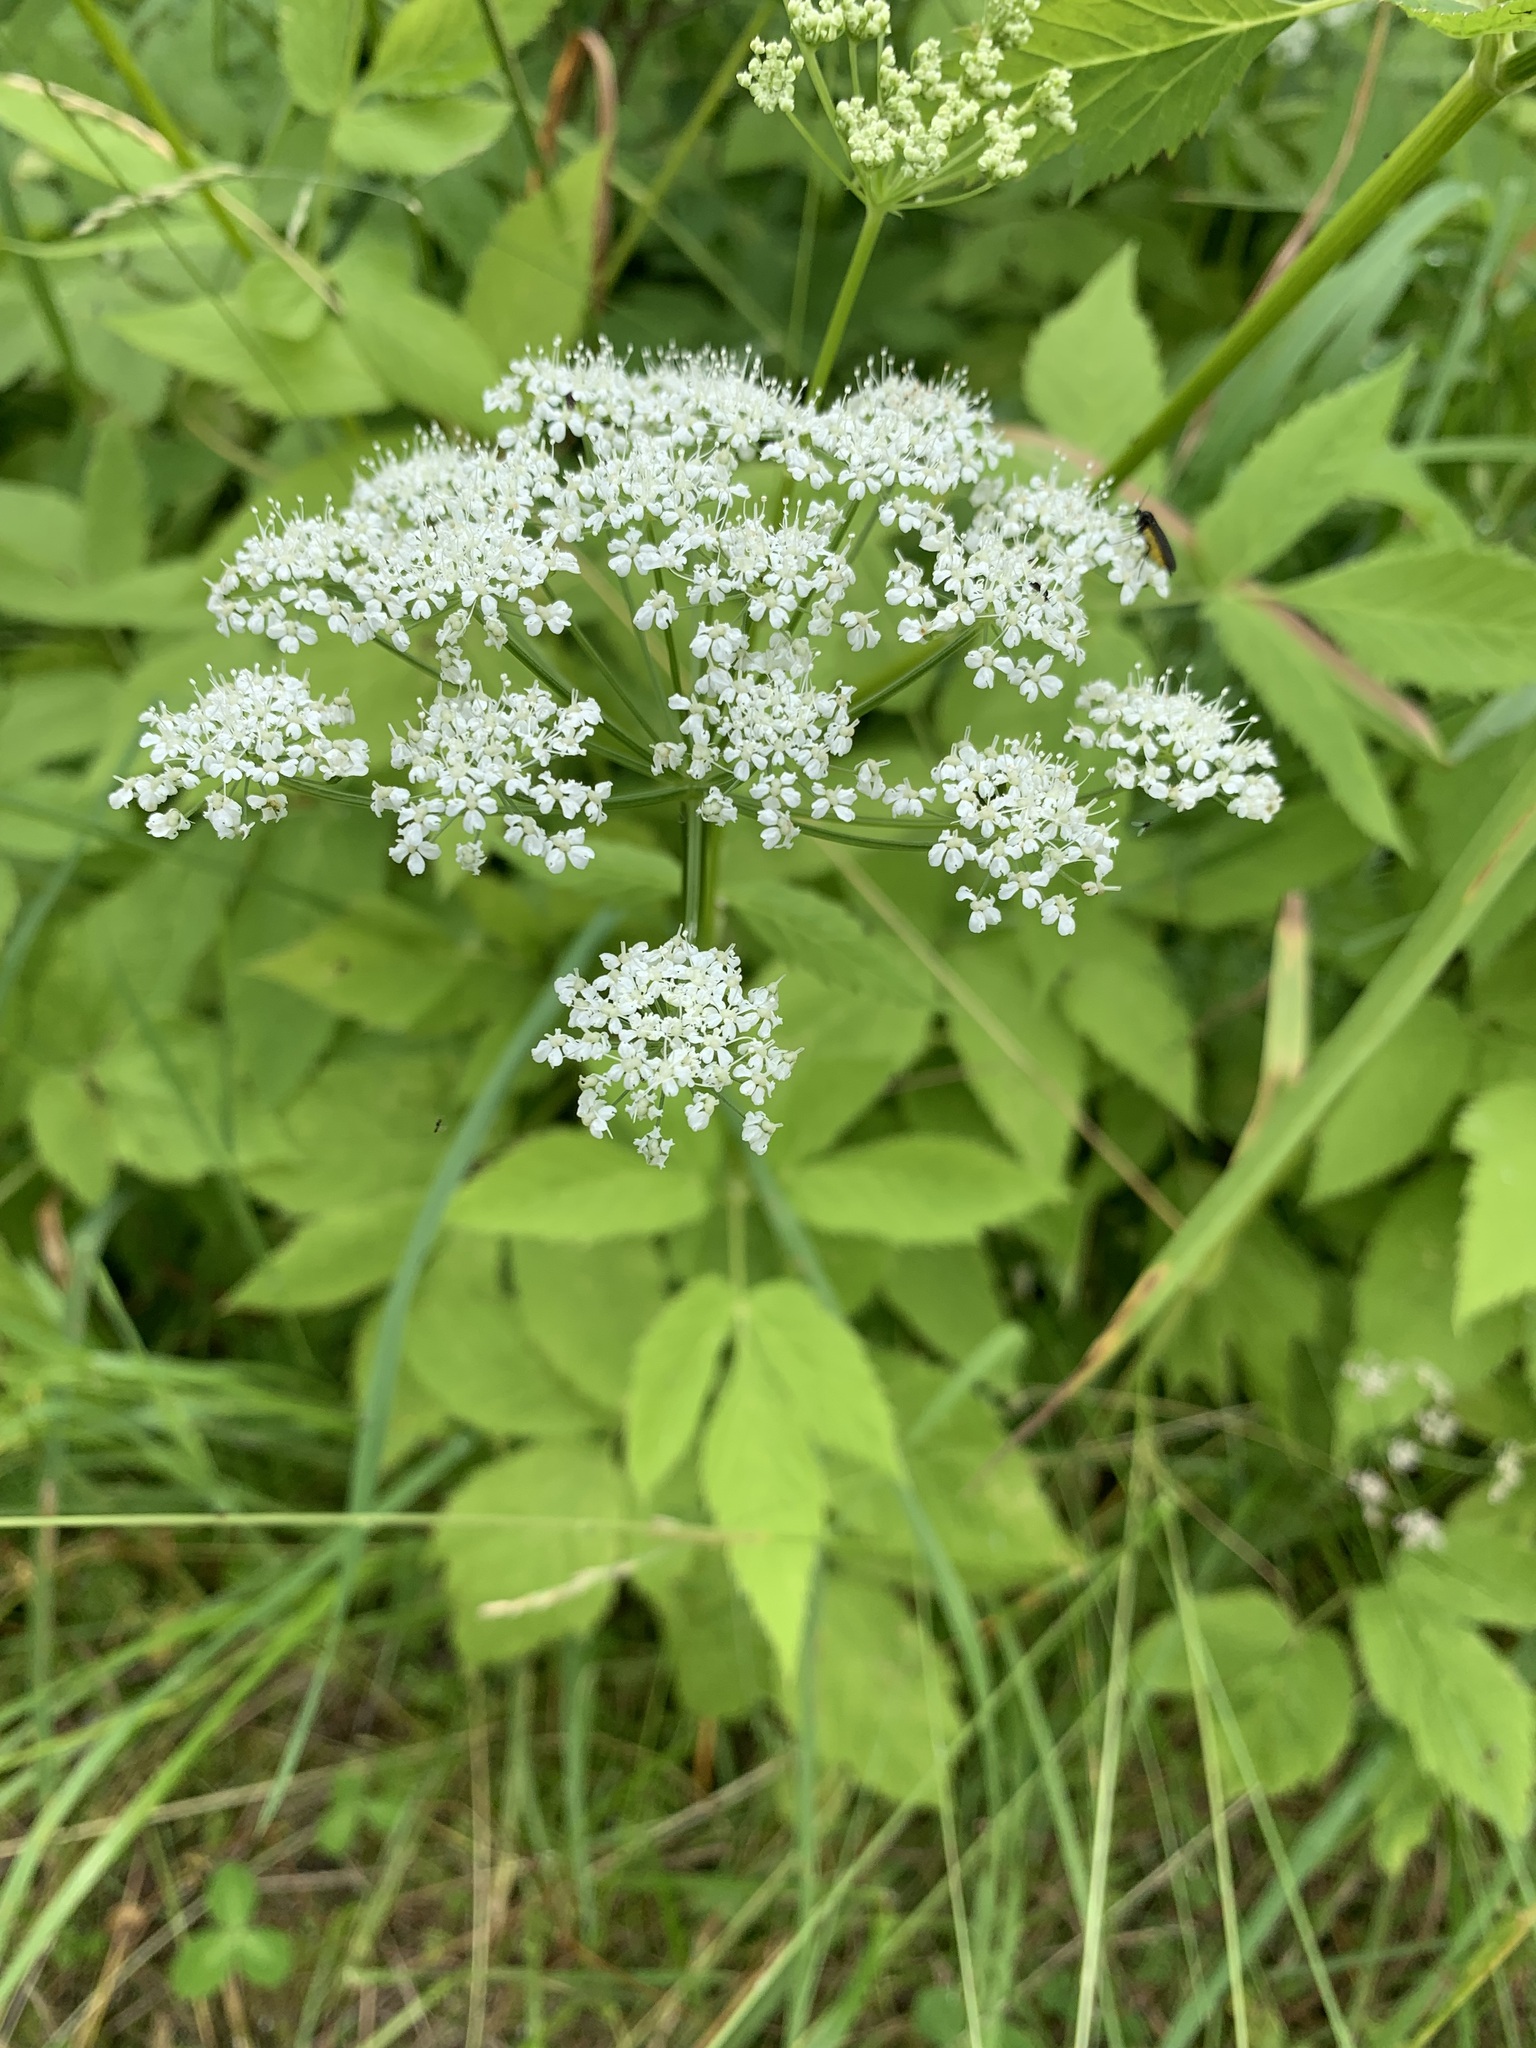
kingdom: Plantae
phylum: Tracheophyta
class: Magnoliopsida
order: Apiales
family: Apiaceae
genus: Aegopodium
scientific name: Aegopodium podagraria
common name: Ground-elder
